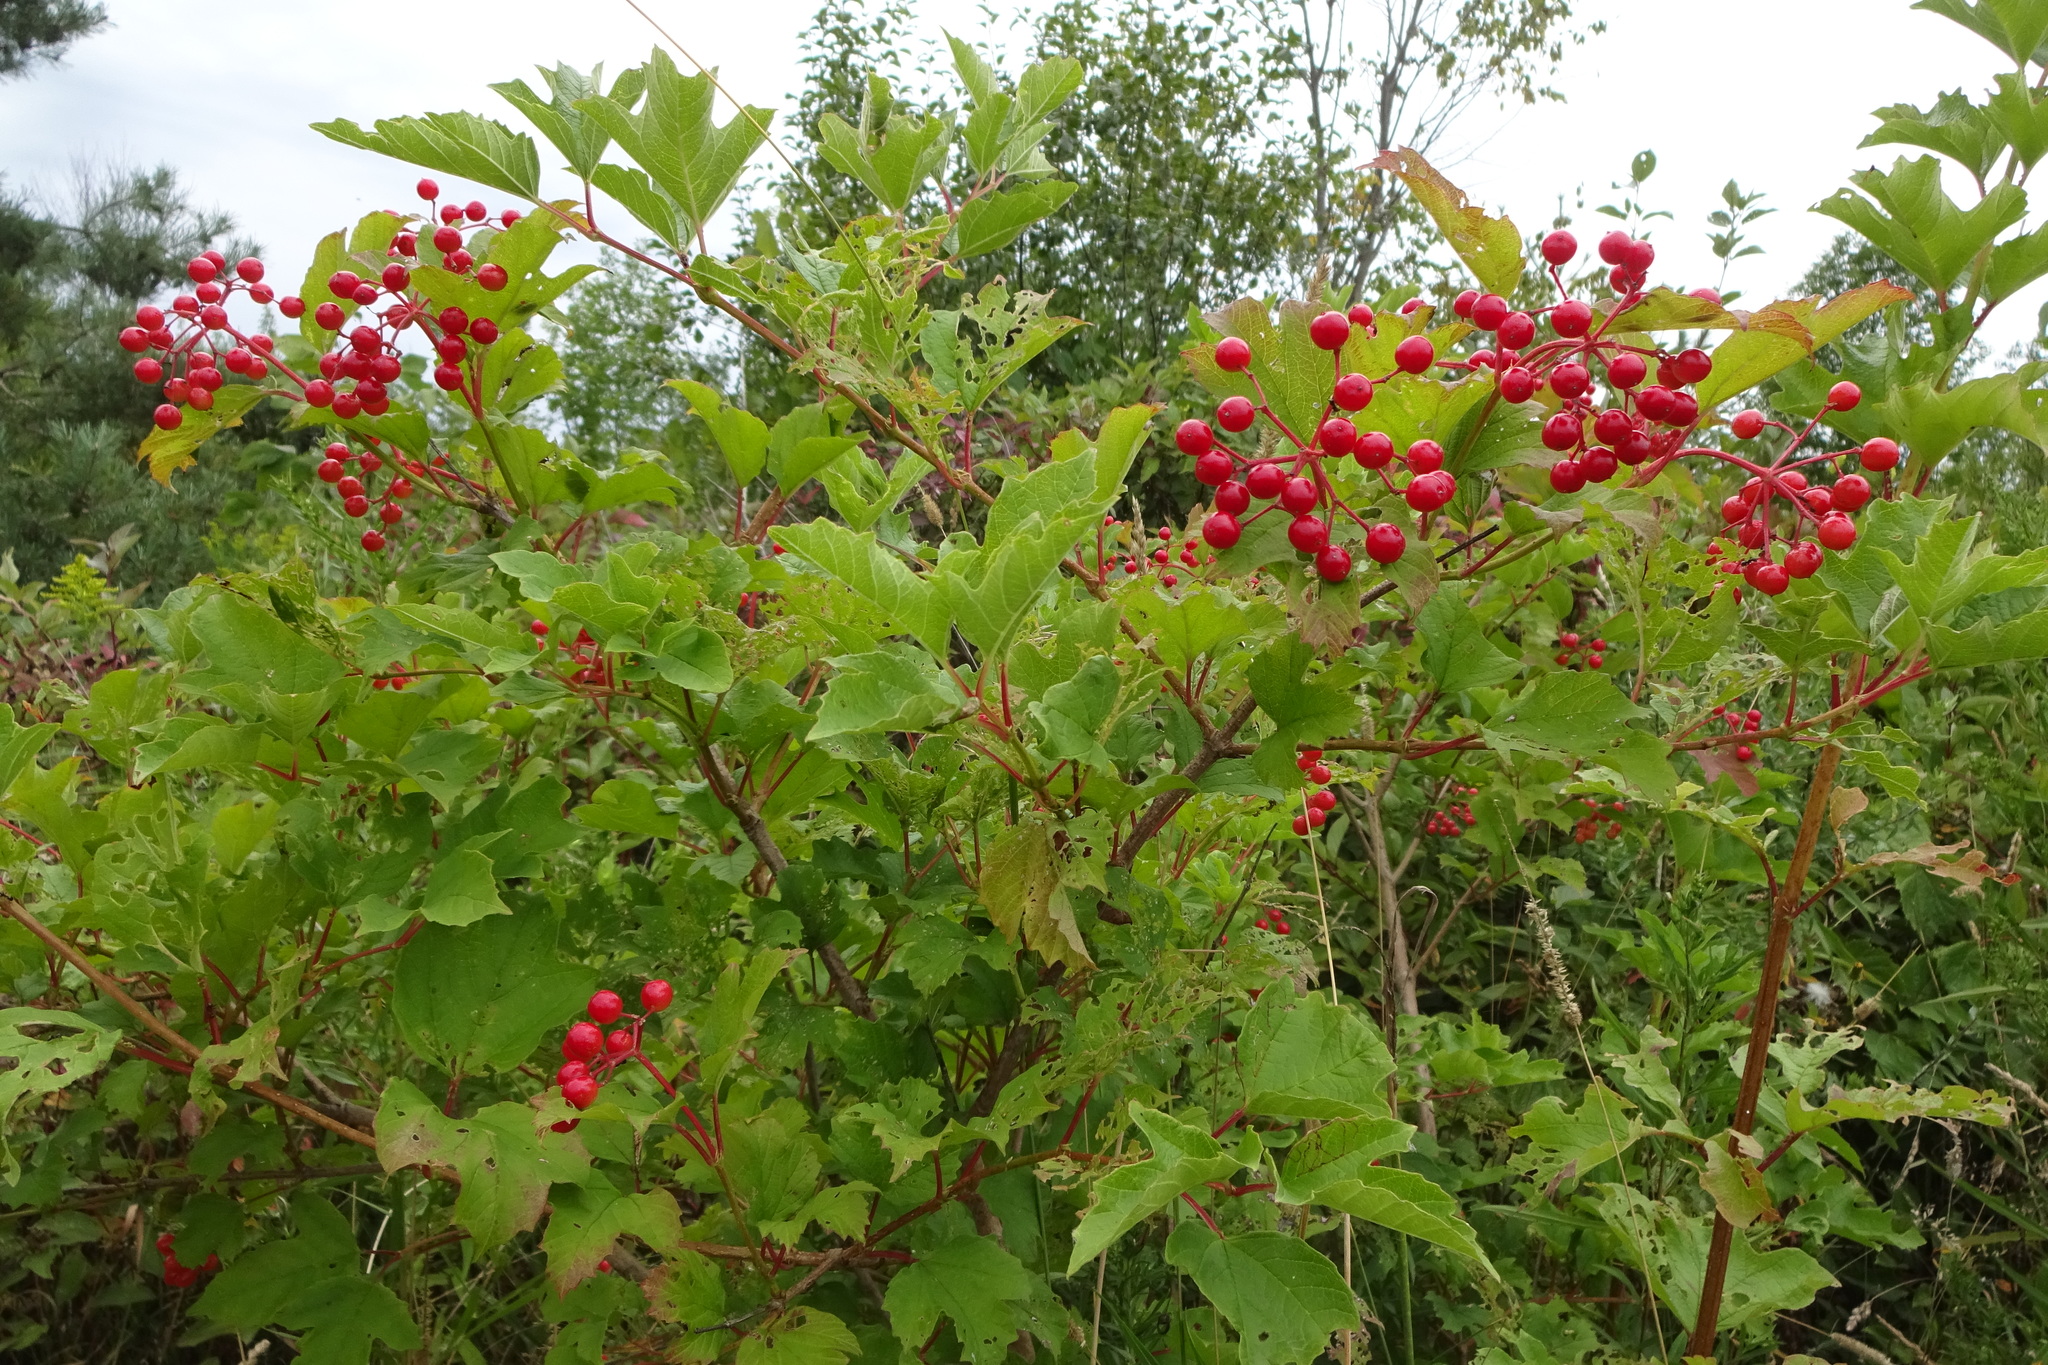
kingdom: Plantae
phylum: Tracheophyta
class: Magnoliopsida
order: Dipsacales
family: Viburnaceae
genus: Viburnum
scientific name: Viburnum opulus
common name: Guelder-rose
